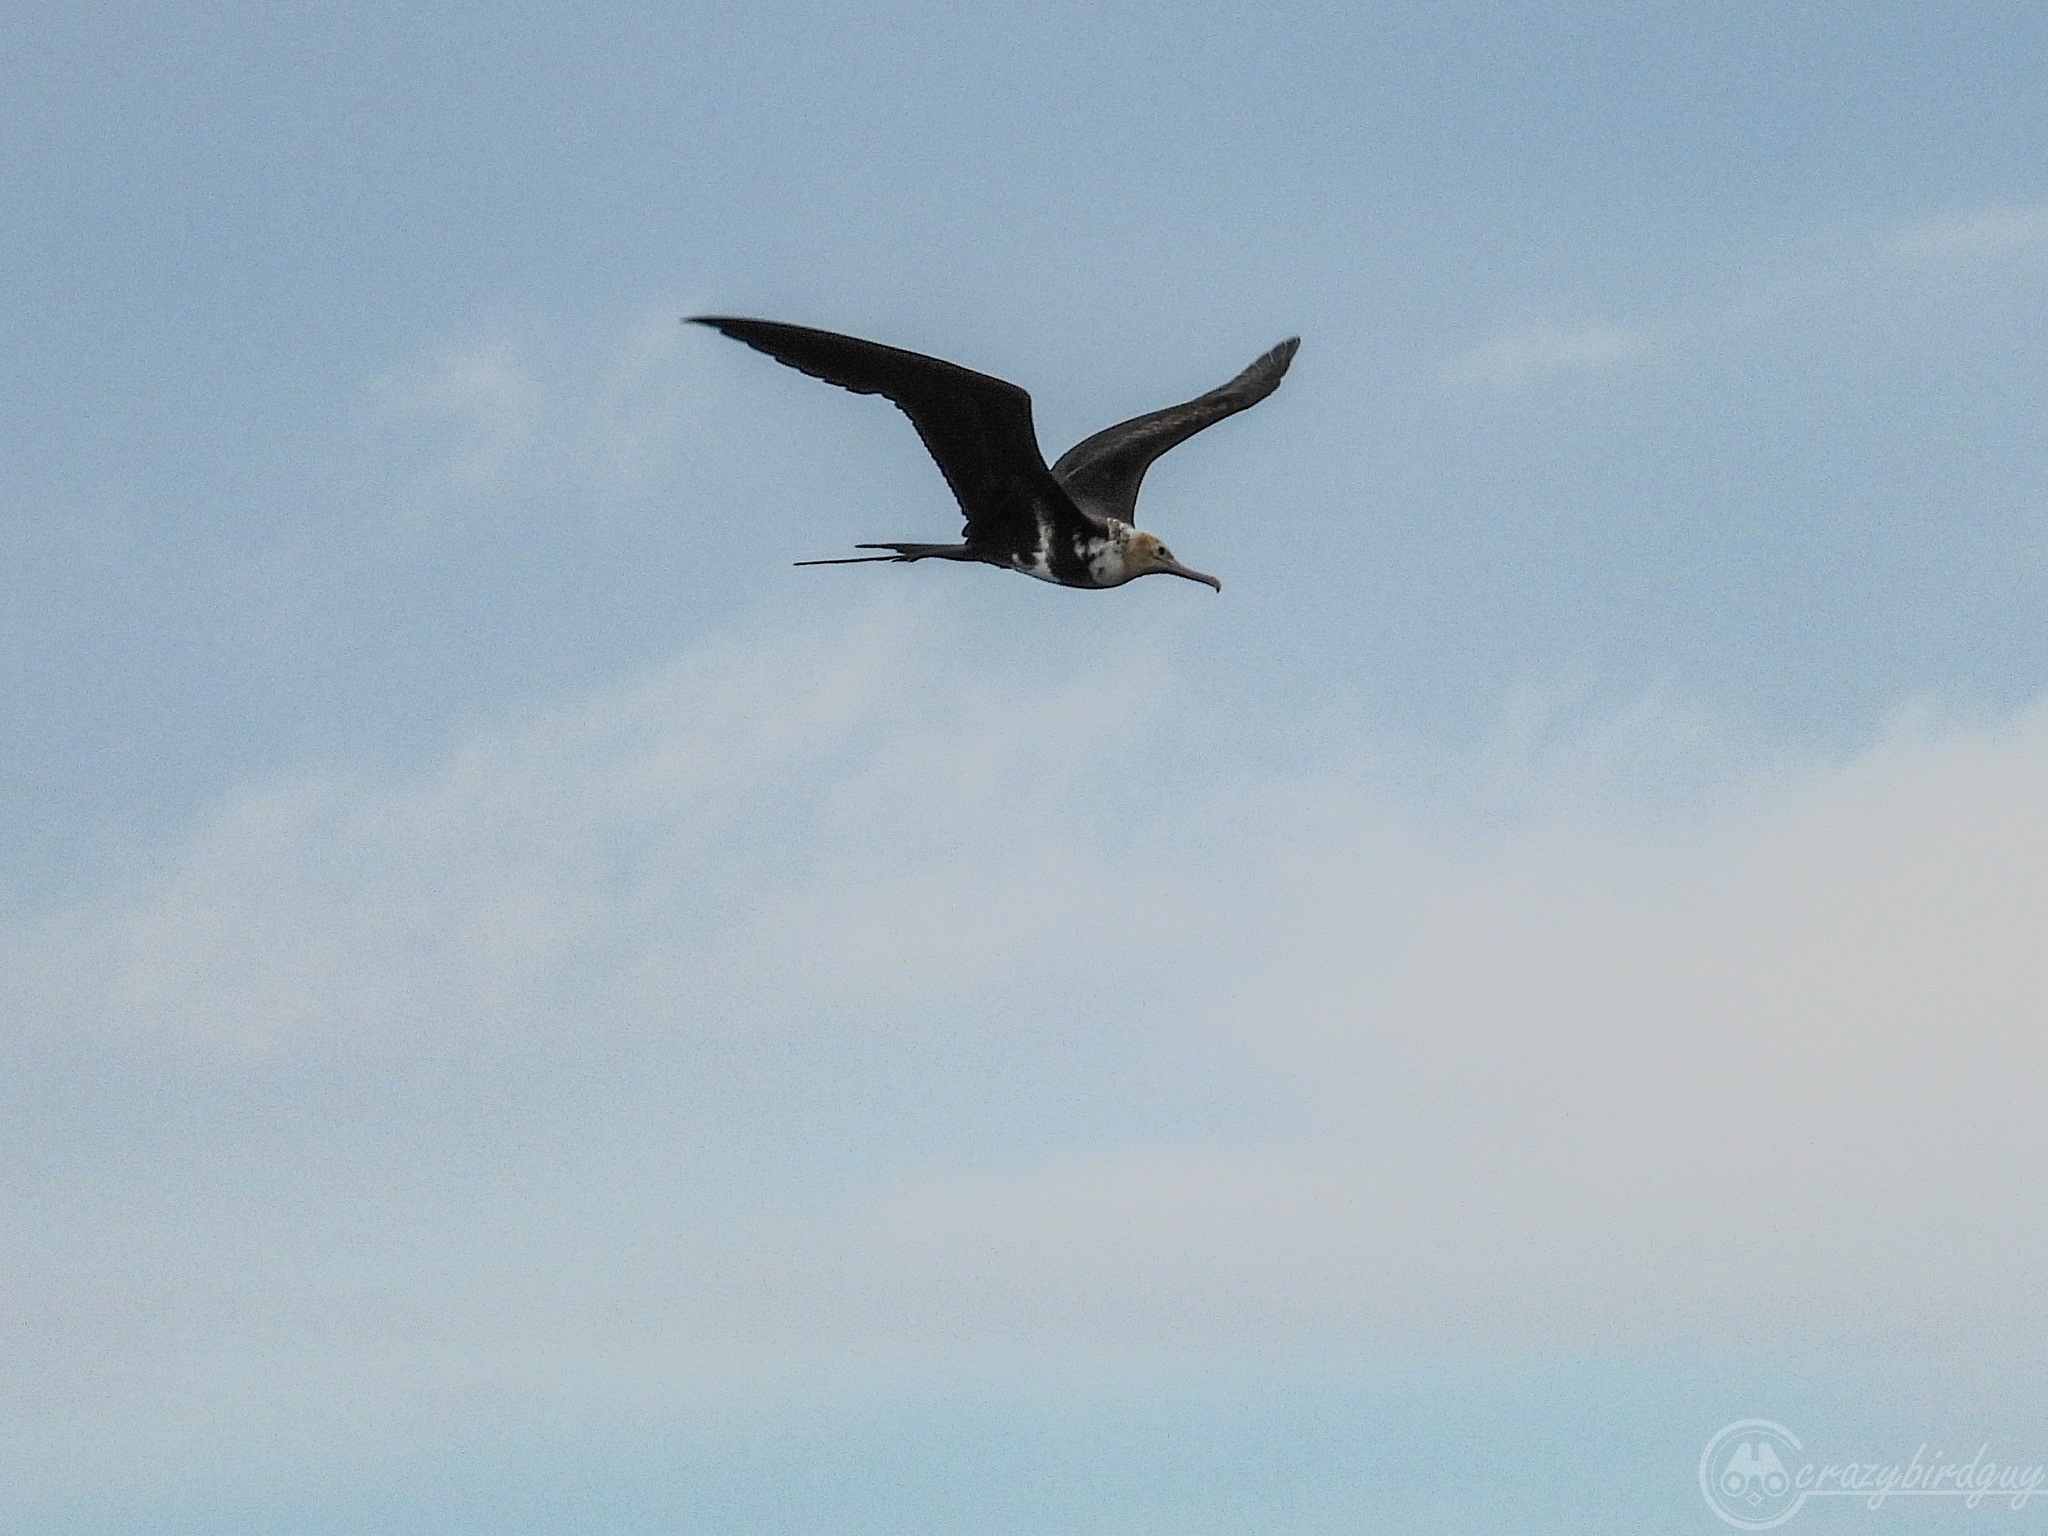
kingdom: Animalia
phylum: Chordata
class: Aves
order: Suliformes
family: Fregatidae
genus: Fregata
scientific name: Fregata ariel
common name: Lesser frigatebird
